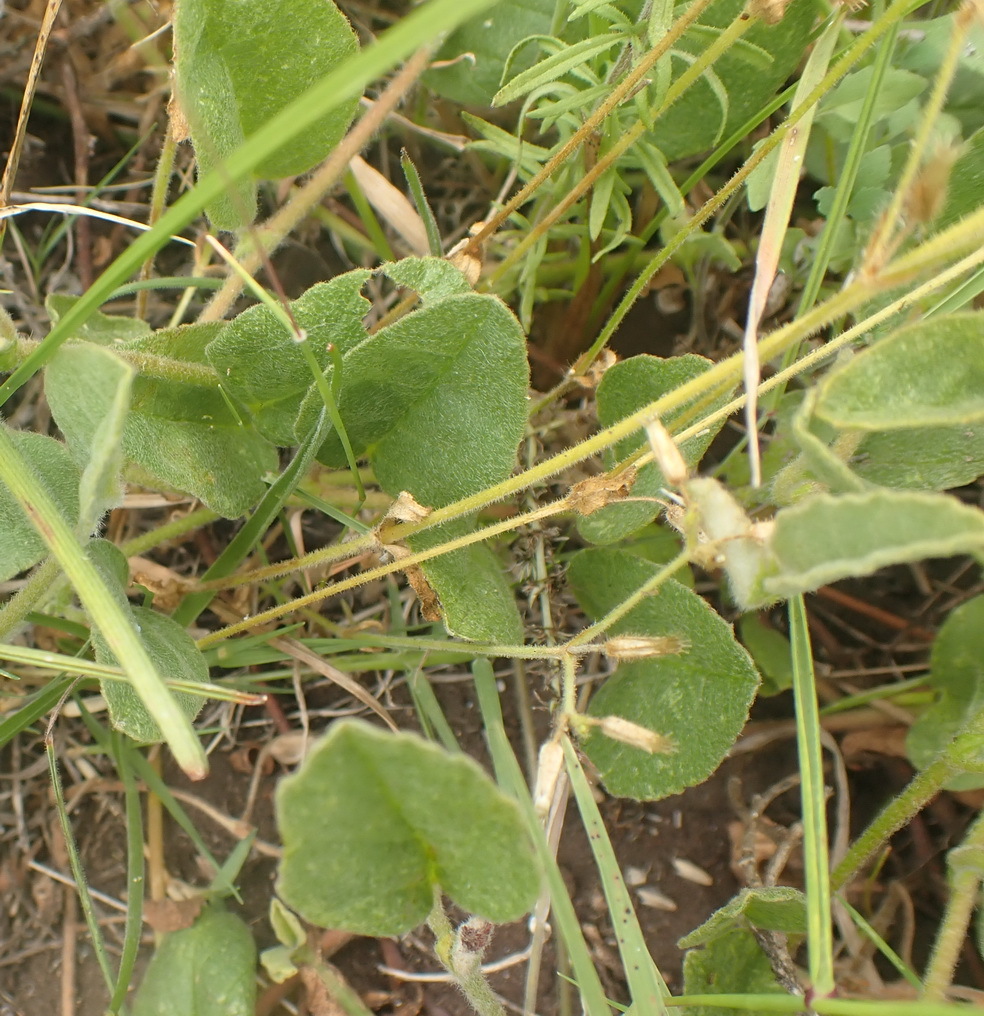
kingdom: Plantae
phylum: Tracheophyta
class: Magnoliopsida
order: Malvales
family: Malvaceae
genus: Hermannia
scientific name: Hermannia decumbens
